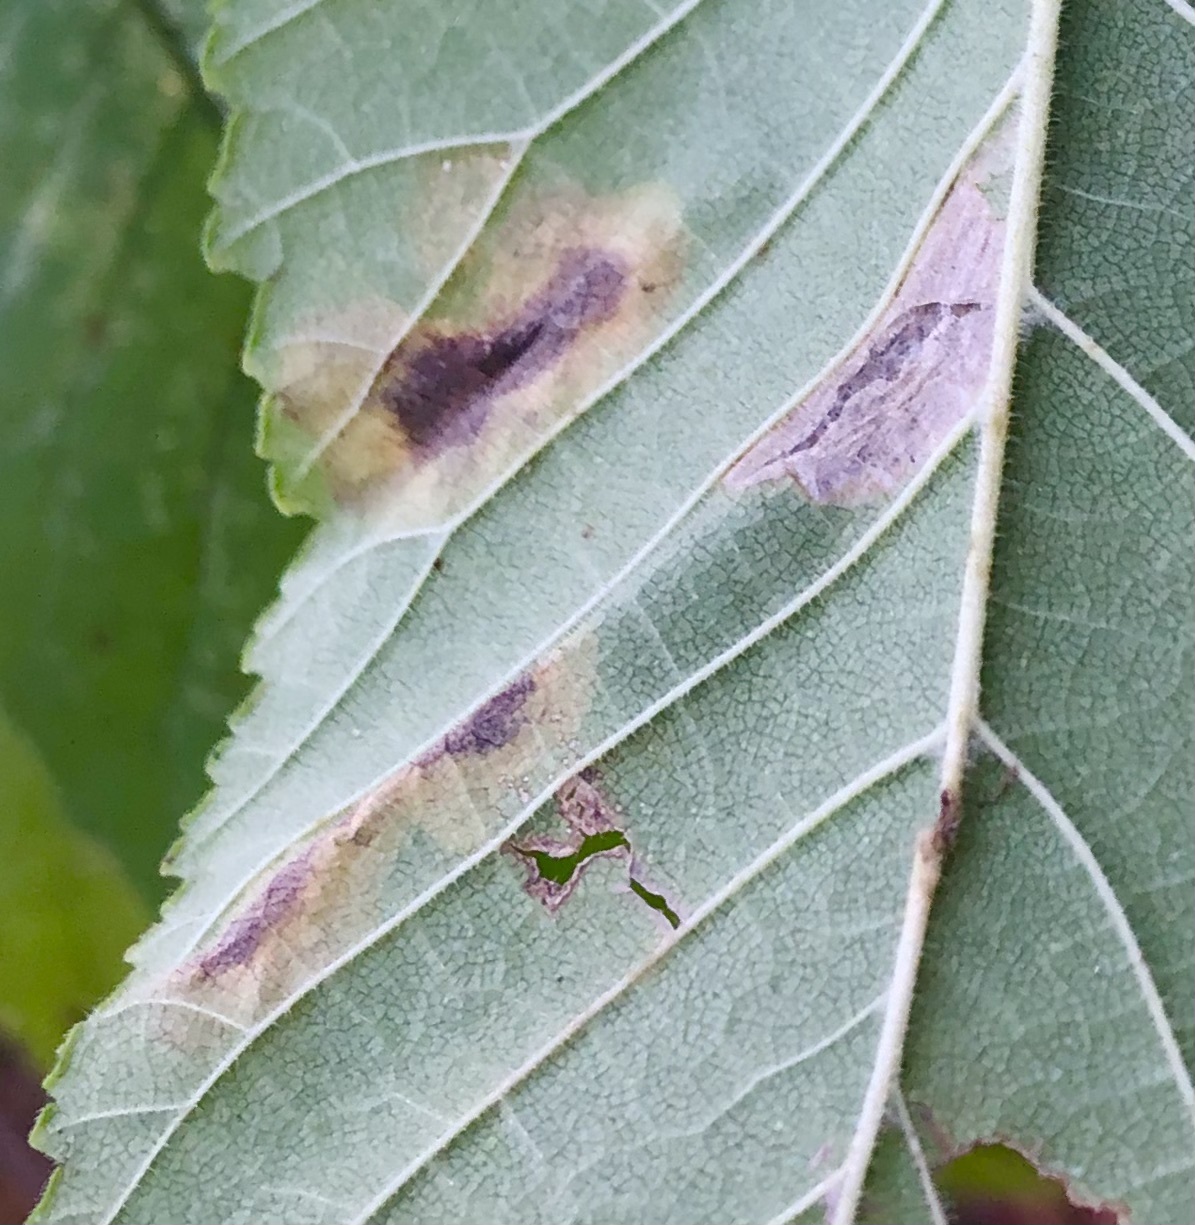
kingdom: Animalia
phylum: Arthropoda
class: Insecta
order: Lepidoptera
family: Gracillariidae
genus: Cameraria
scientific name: Cameraria ulmella
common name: Elm leafminer
